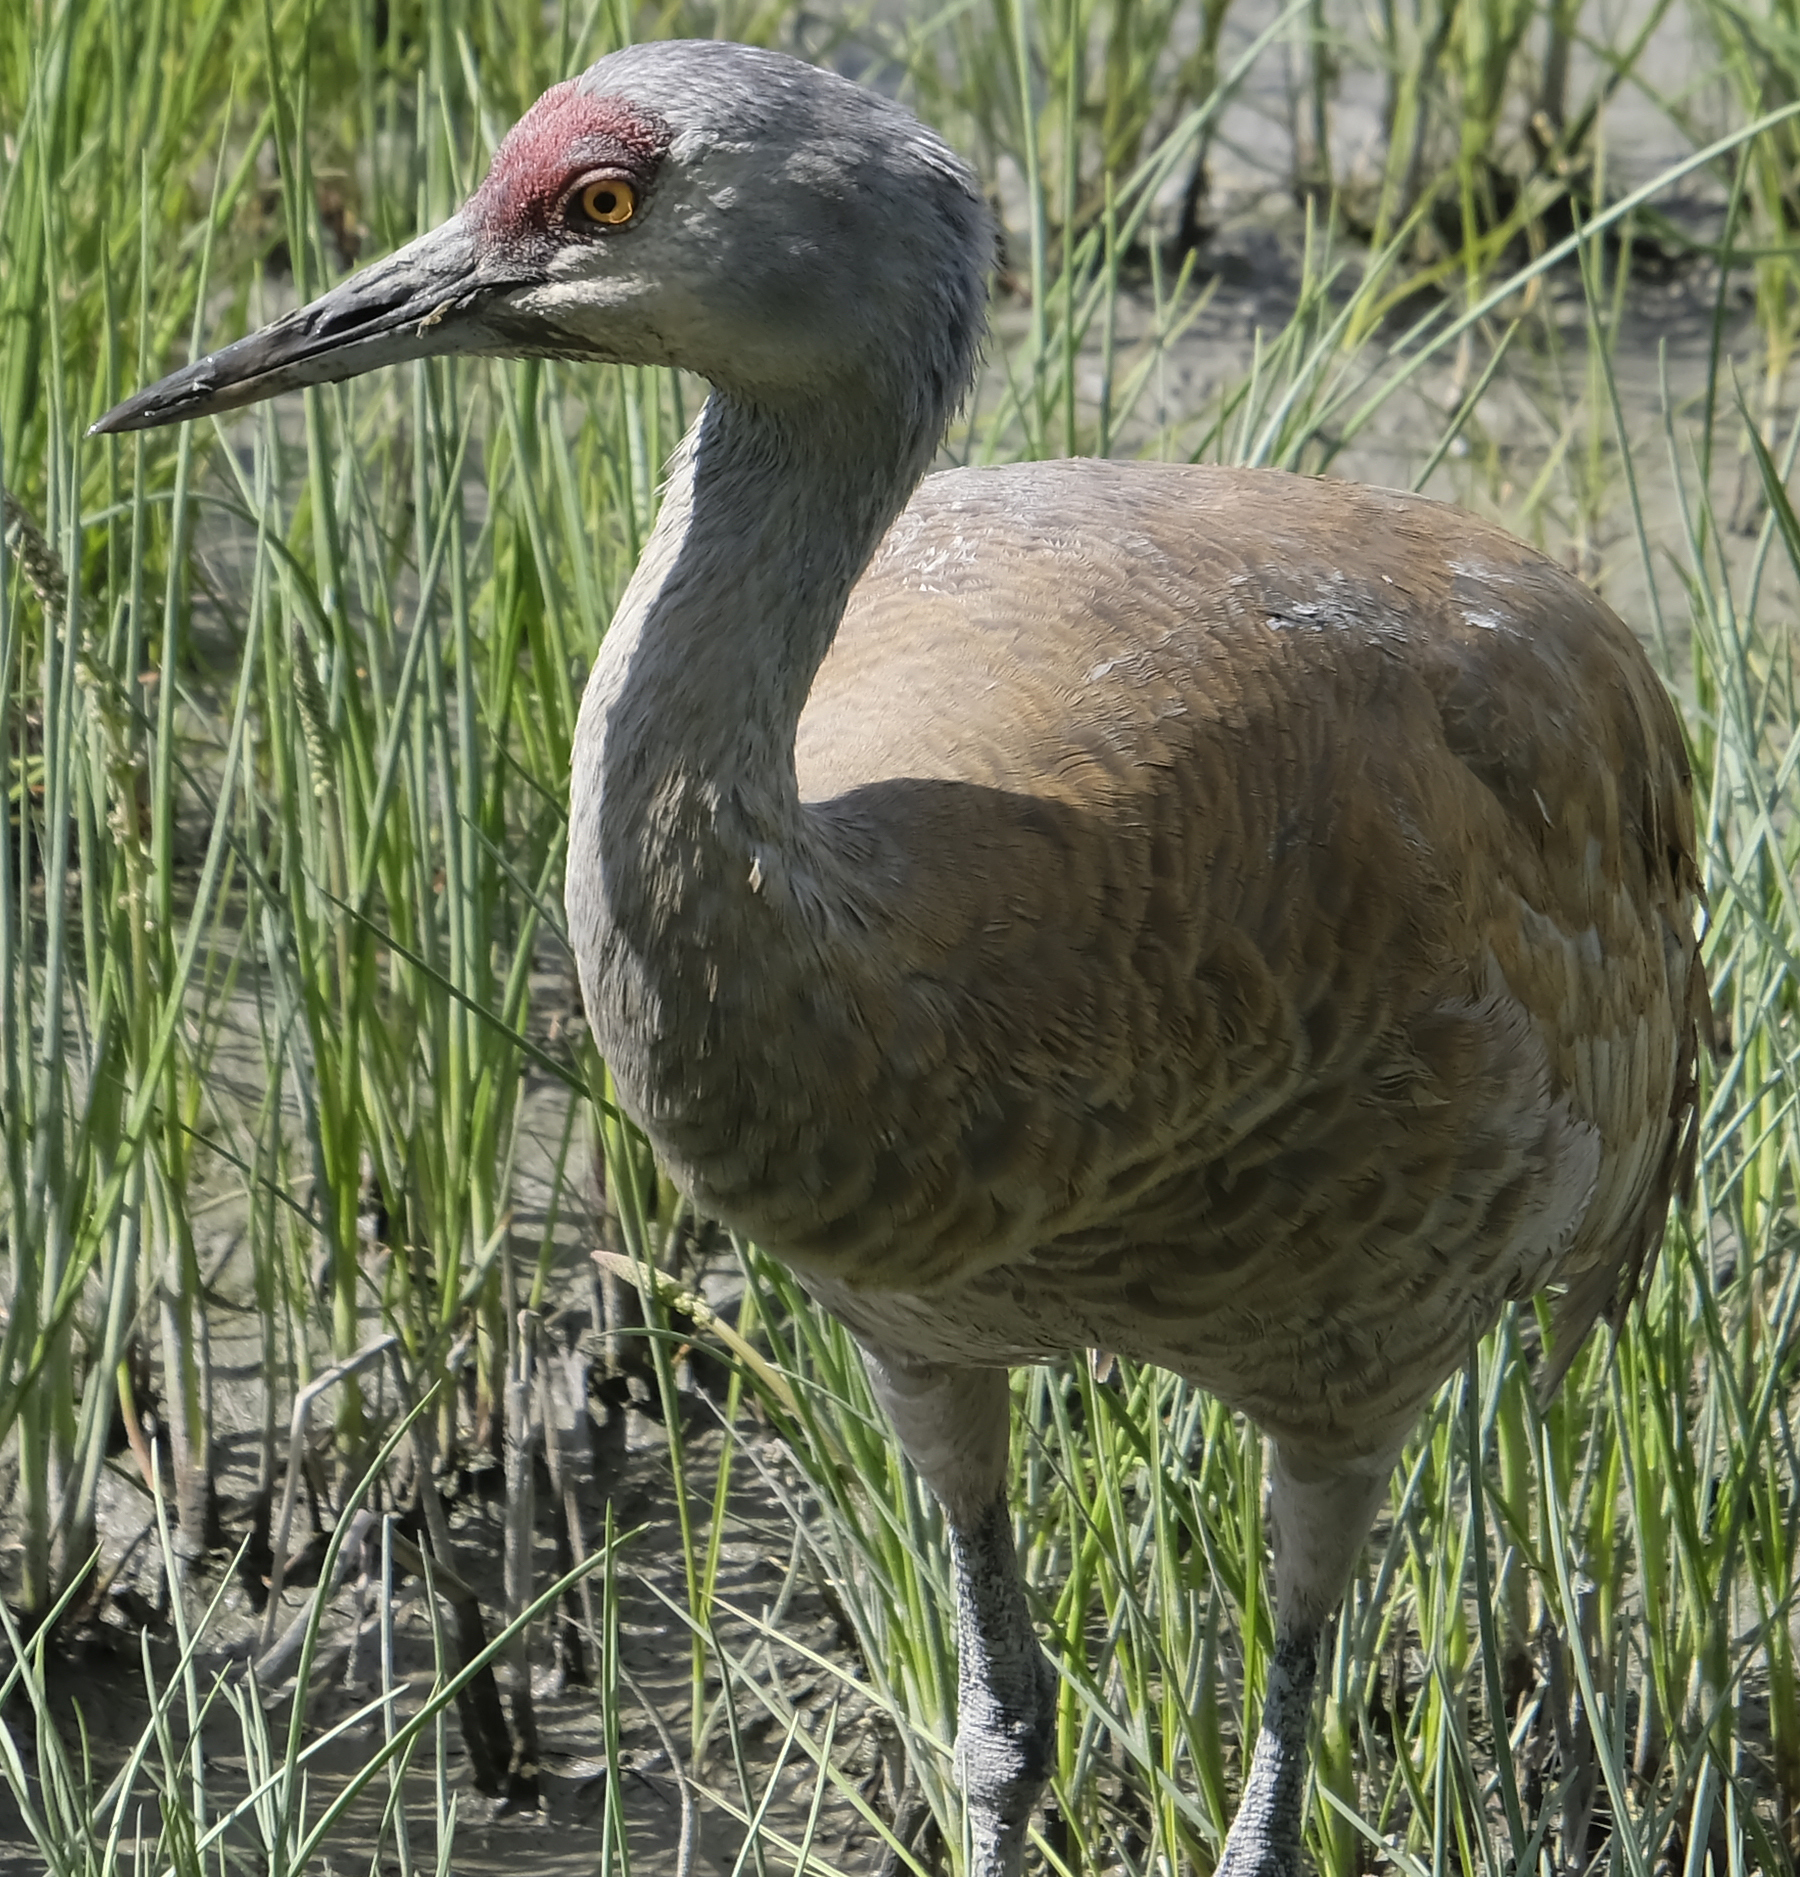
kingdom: Animalia
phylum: Chordata
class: Aves
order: Gruiformes
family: Gruidae
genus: Grus
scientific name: Grus canadensis
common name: Sandhill crane
